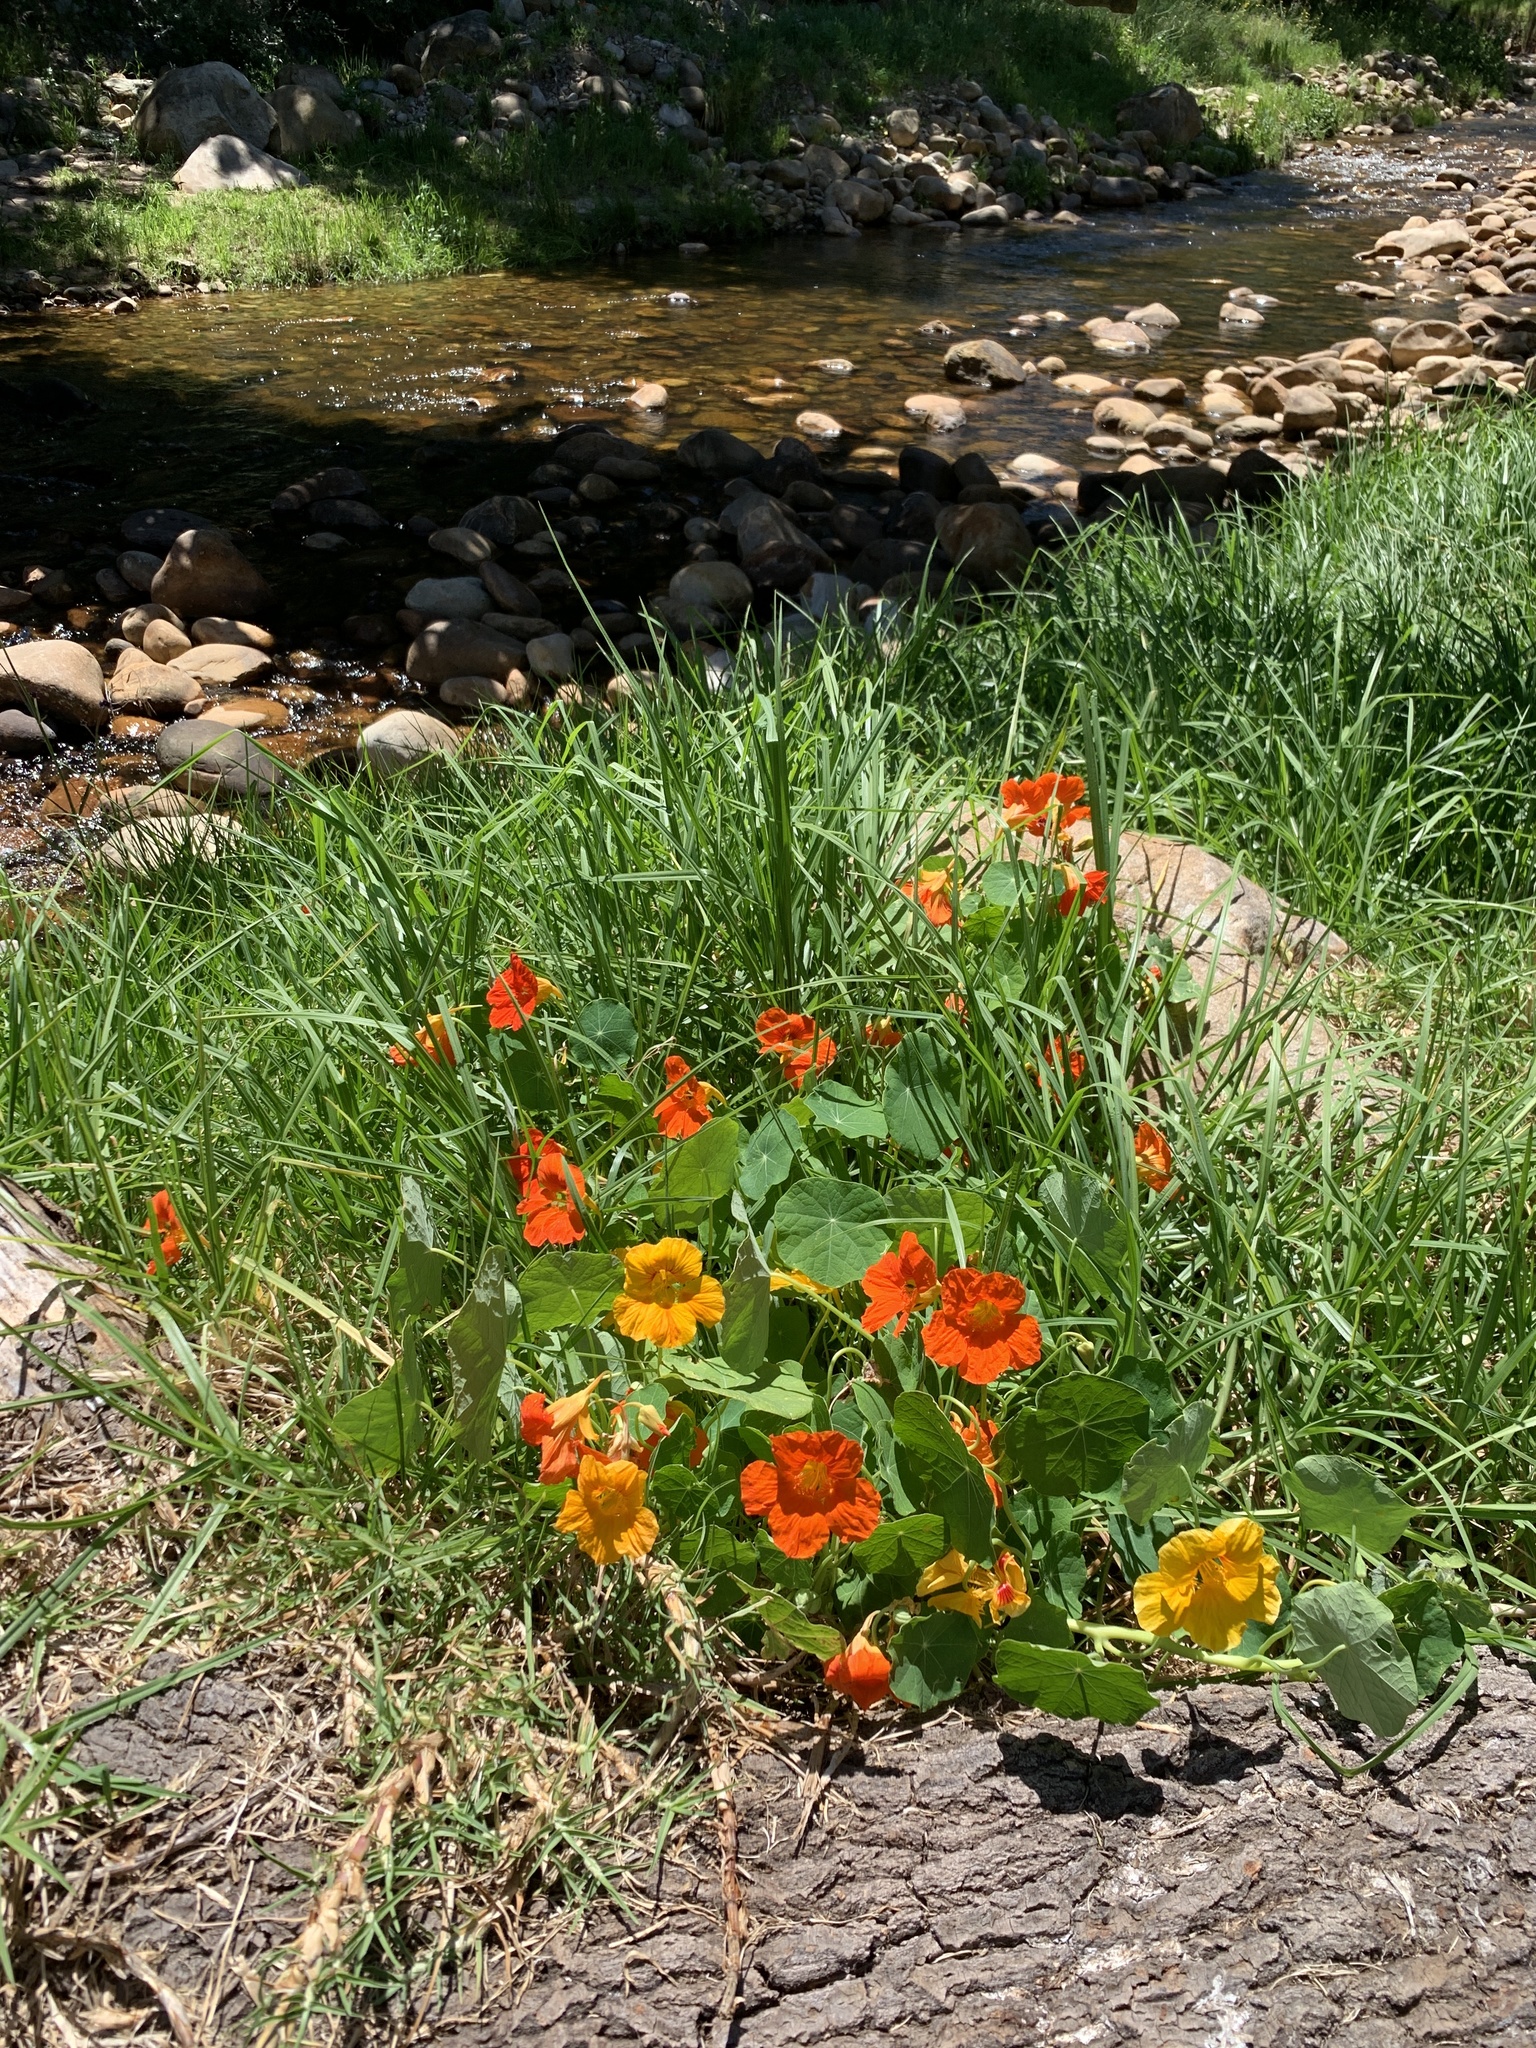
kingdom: Plantae
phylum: Tracheophyta
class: Magnoliopsida
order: Brassicales
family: Tropaeolaceae
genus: Tropaeolum
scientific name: Tropaeolum majus
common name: Nasturtium
